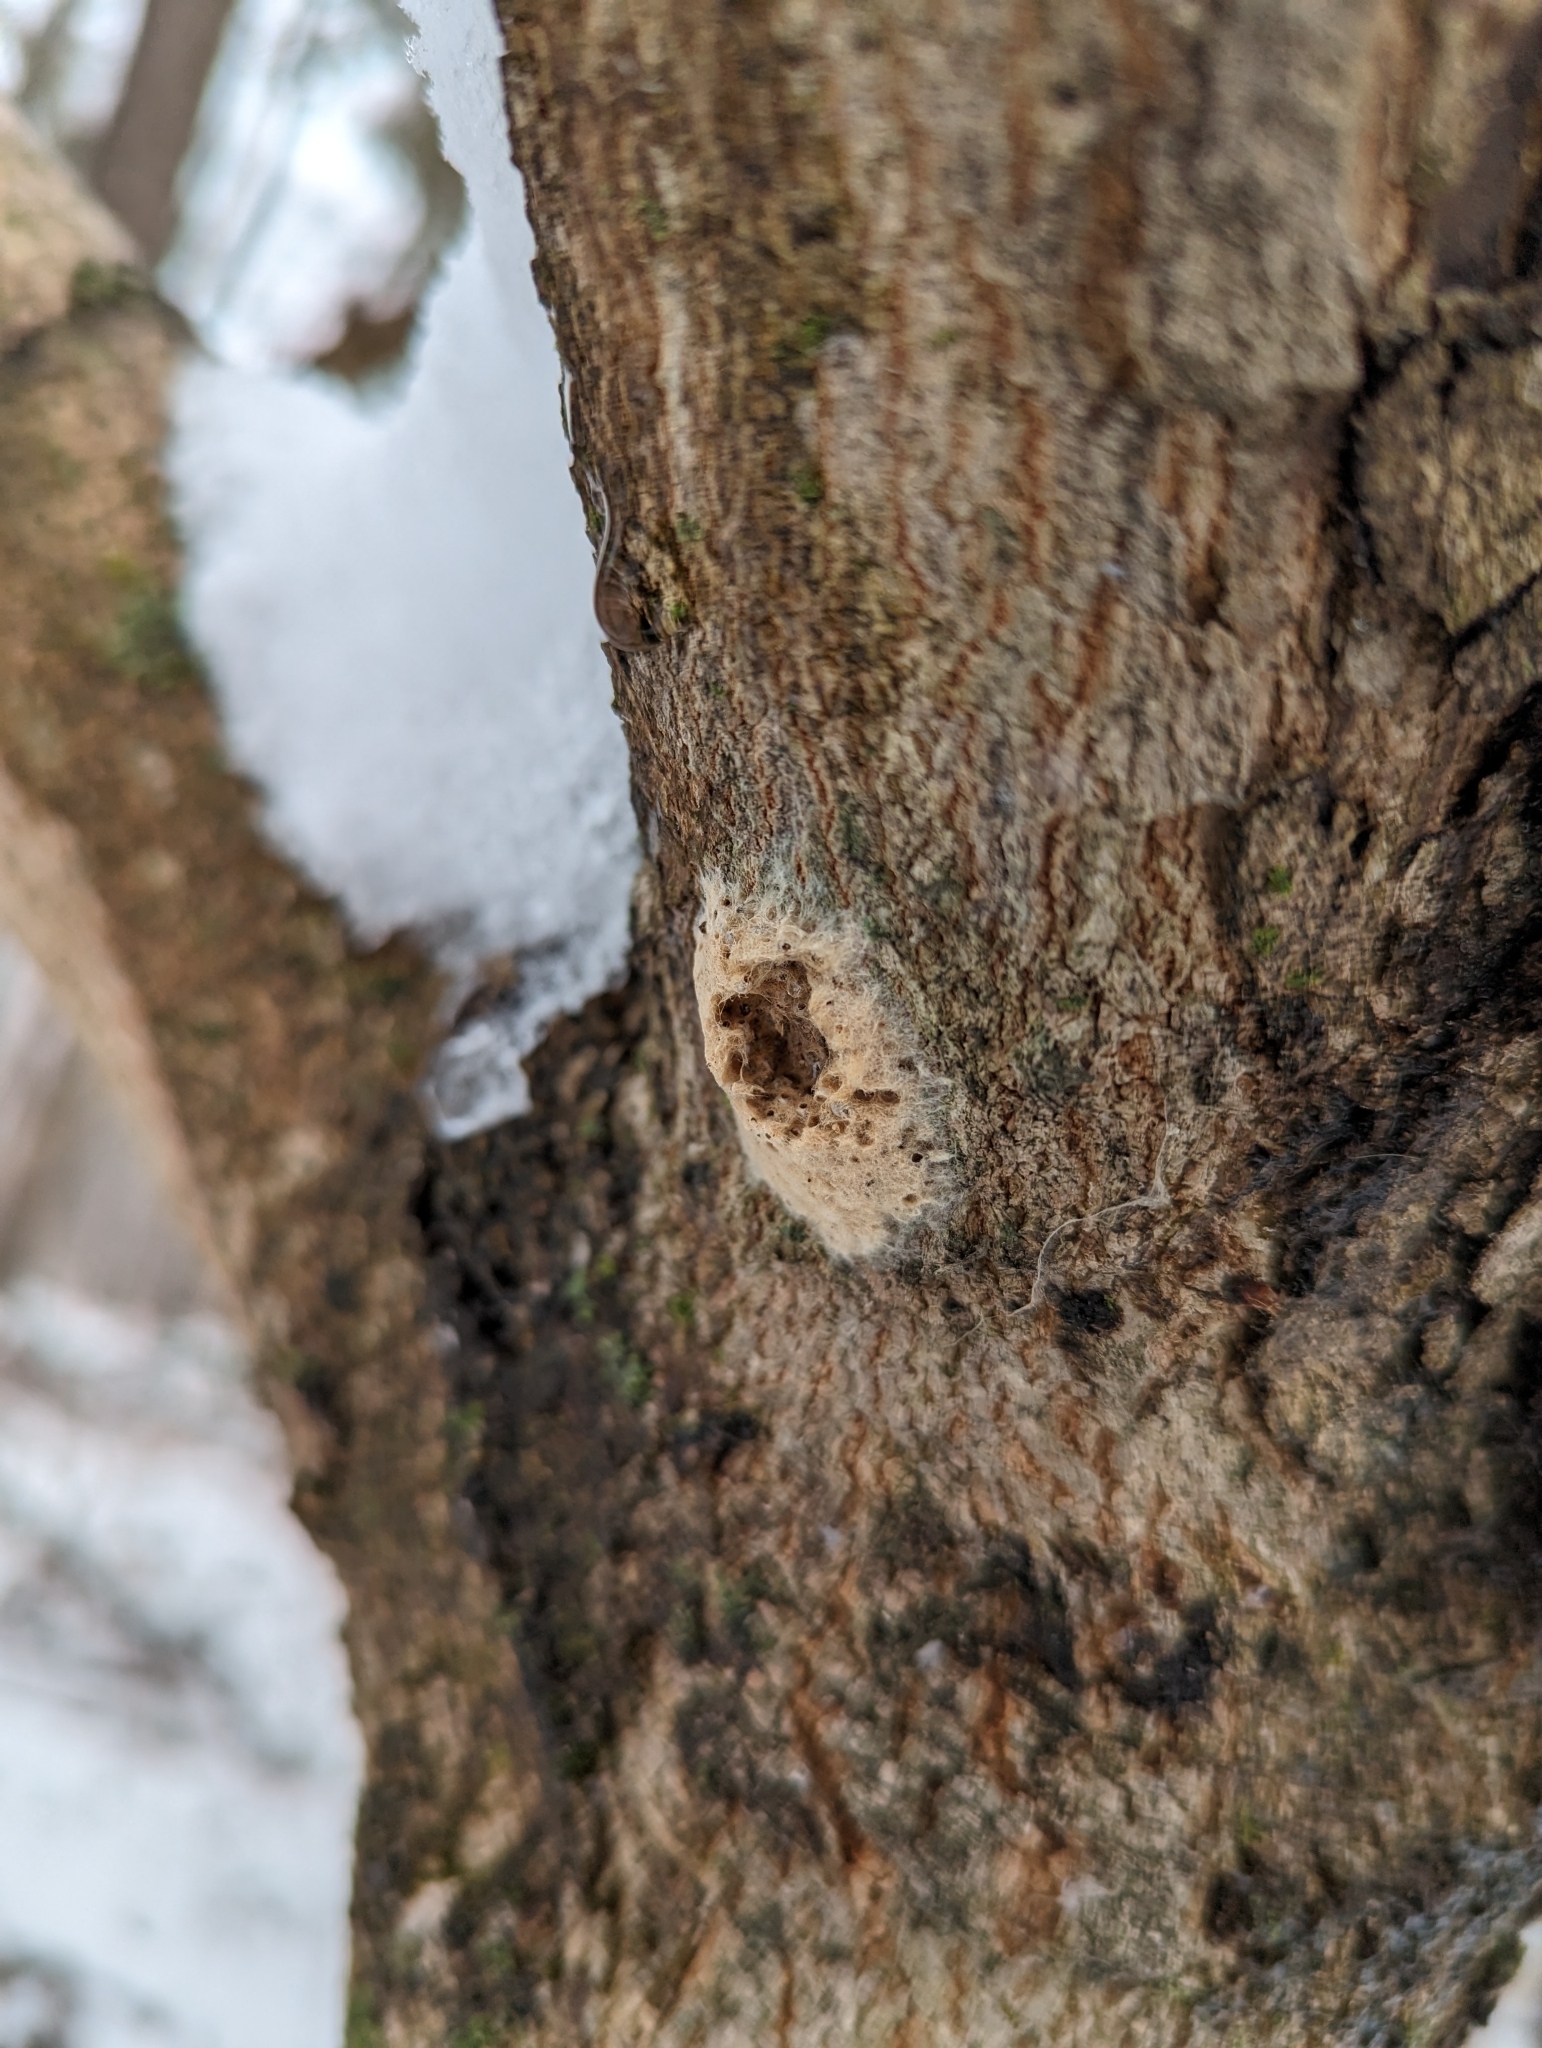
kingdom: Animalia
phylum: Arthropoda
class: Insecta
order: Lepidoptera
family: Erebidae
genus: Lymantria
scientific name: Lymantria dispar
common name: Gypsy moth
